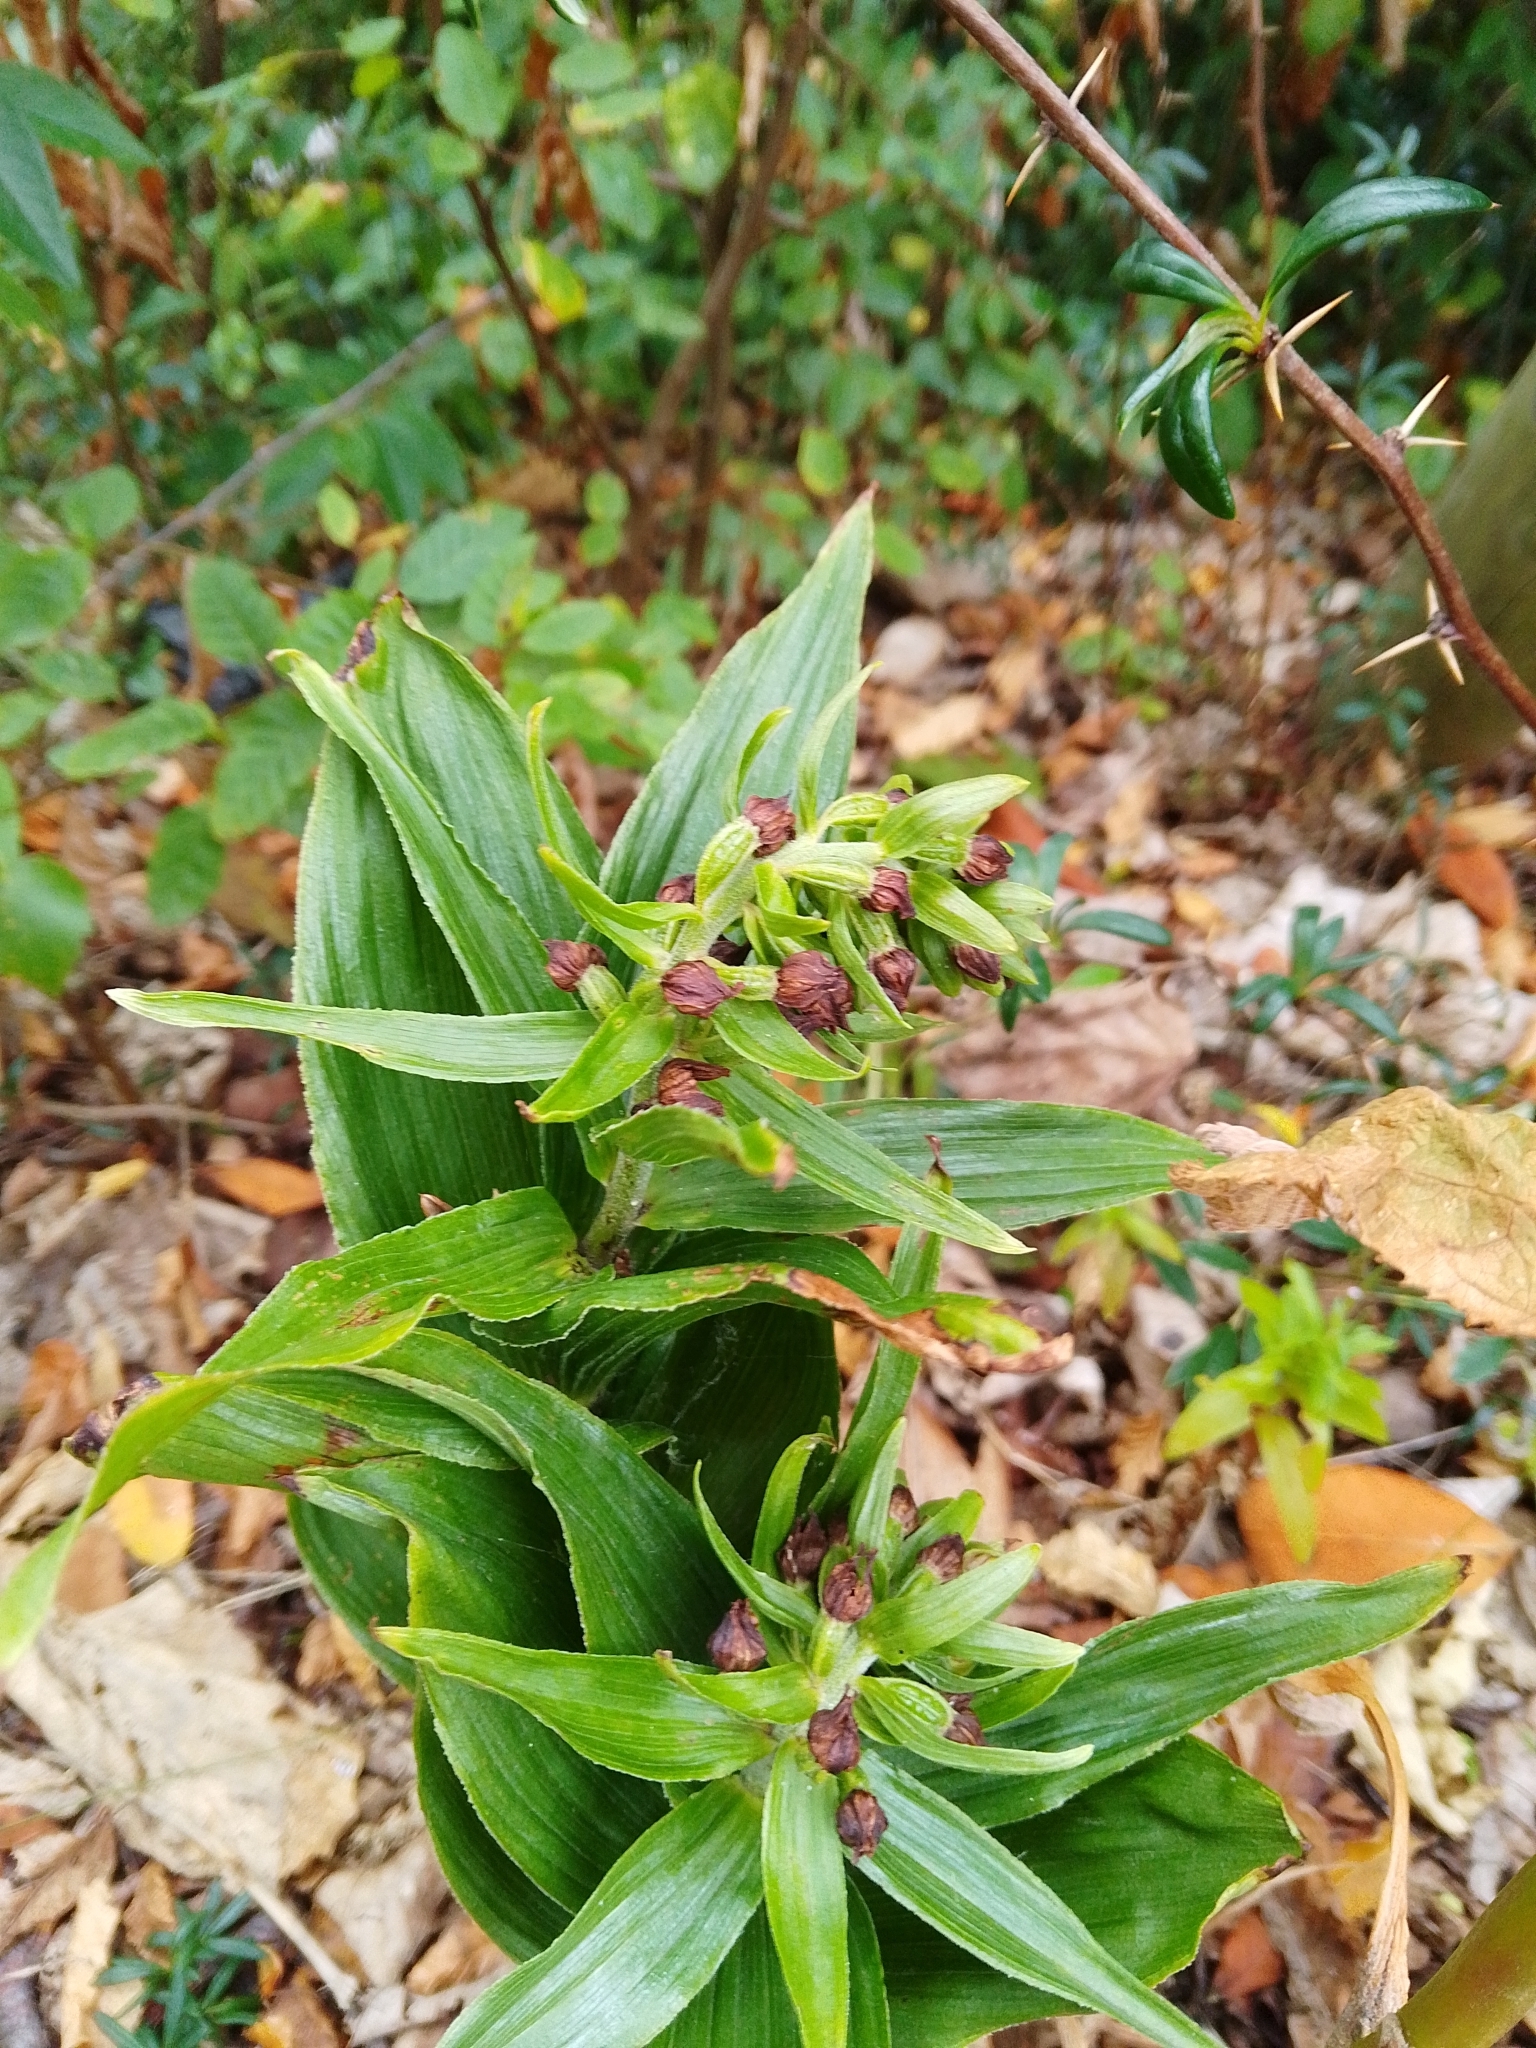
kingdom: Plantae
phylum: Tracheophyta
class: Liliopsida
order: Asparagales
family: Orchidaceae
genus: Epipactis
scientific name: Epipactis helleborine
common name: Broad-leaved helleborine
